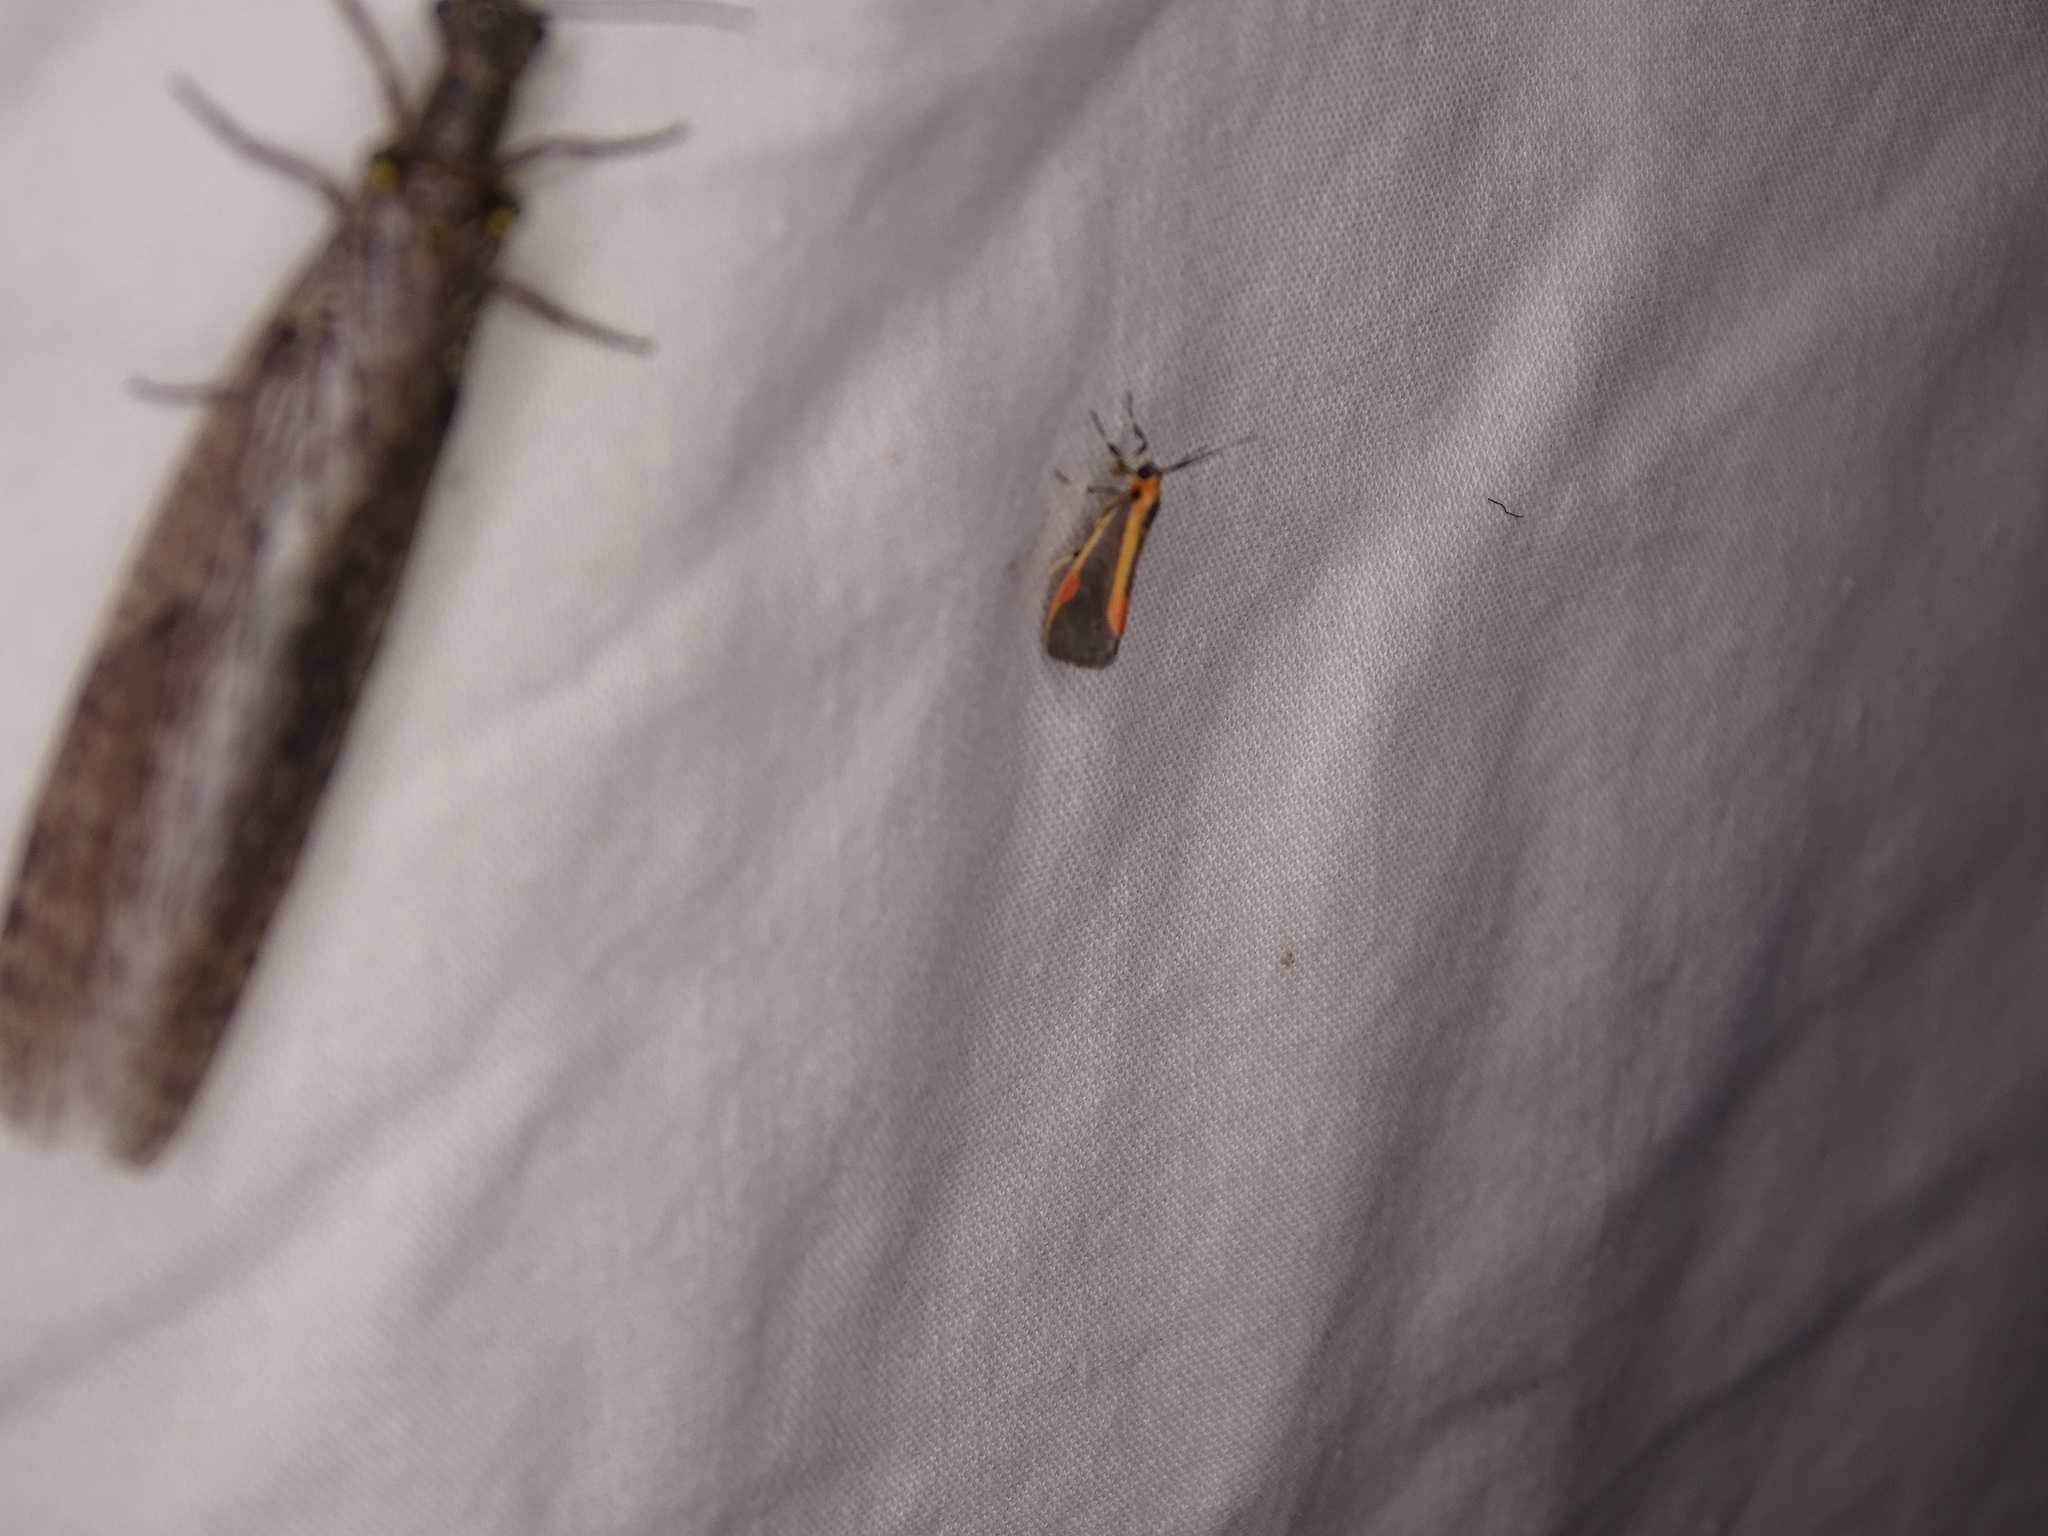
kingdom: Animalia
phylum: Arthropoda
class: Insecta
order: Lepidoptera
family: Erebidae
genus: Cisthene
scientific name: Cisthene subjecta
